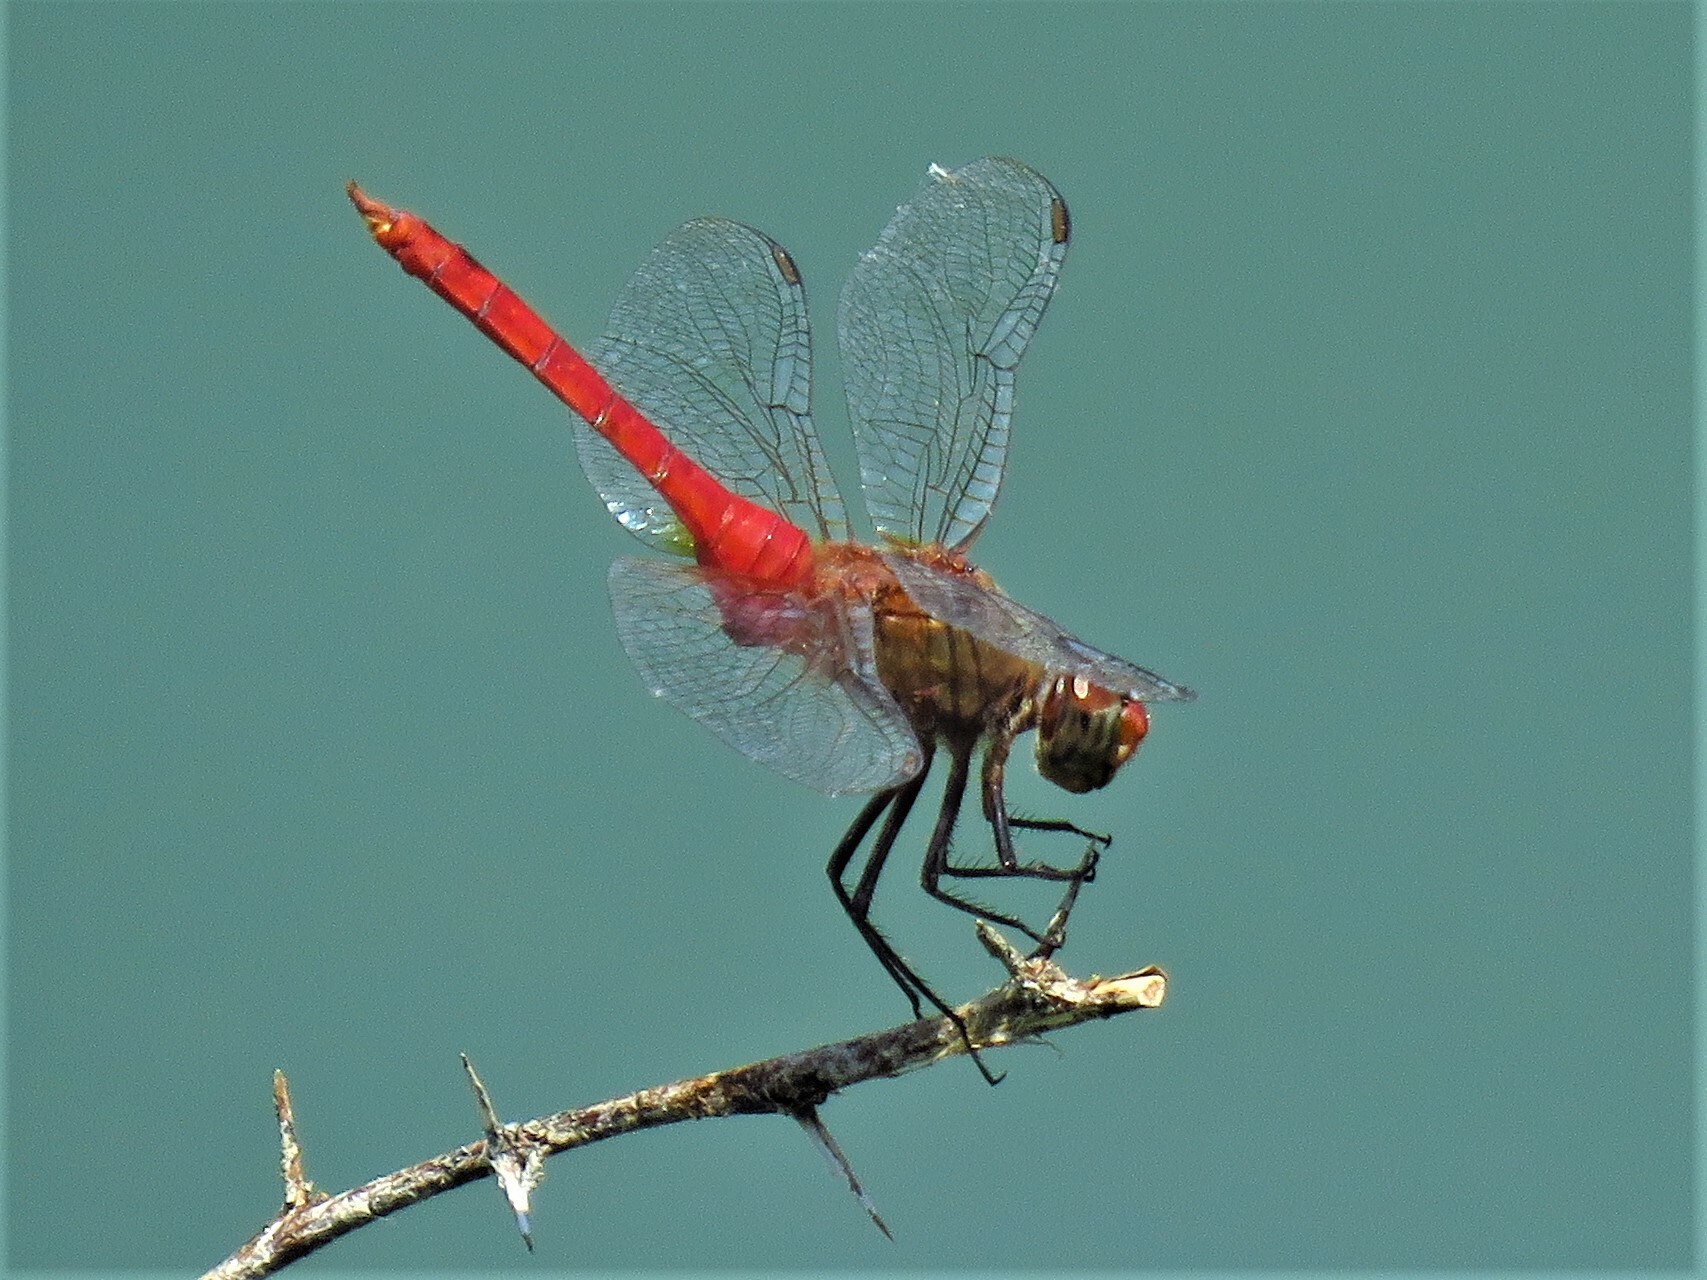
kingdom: Animalia
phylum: Arthropoda
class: Insecta
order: Odonata
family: Libellulidae
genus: Brachymesia
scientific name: Brachymesia furcata
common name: Red-taled pennant
